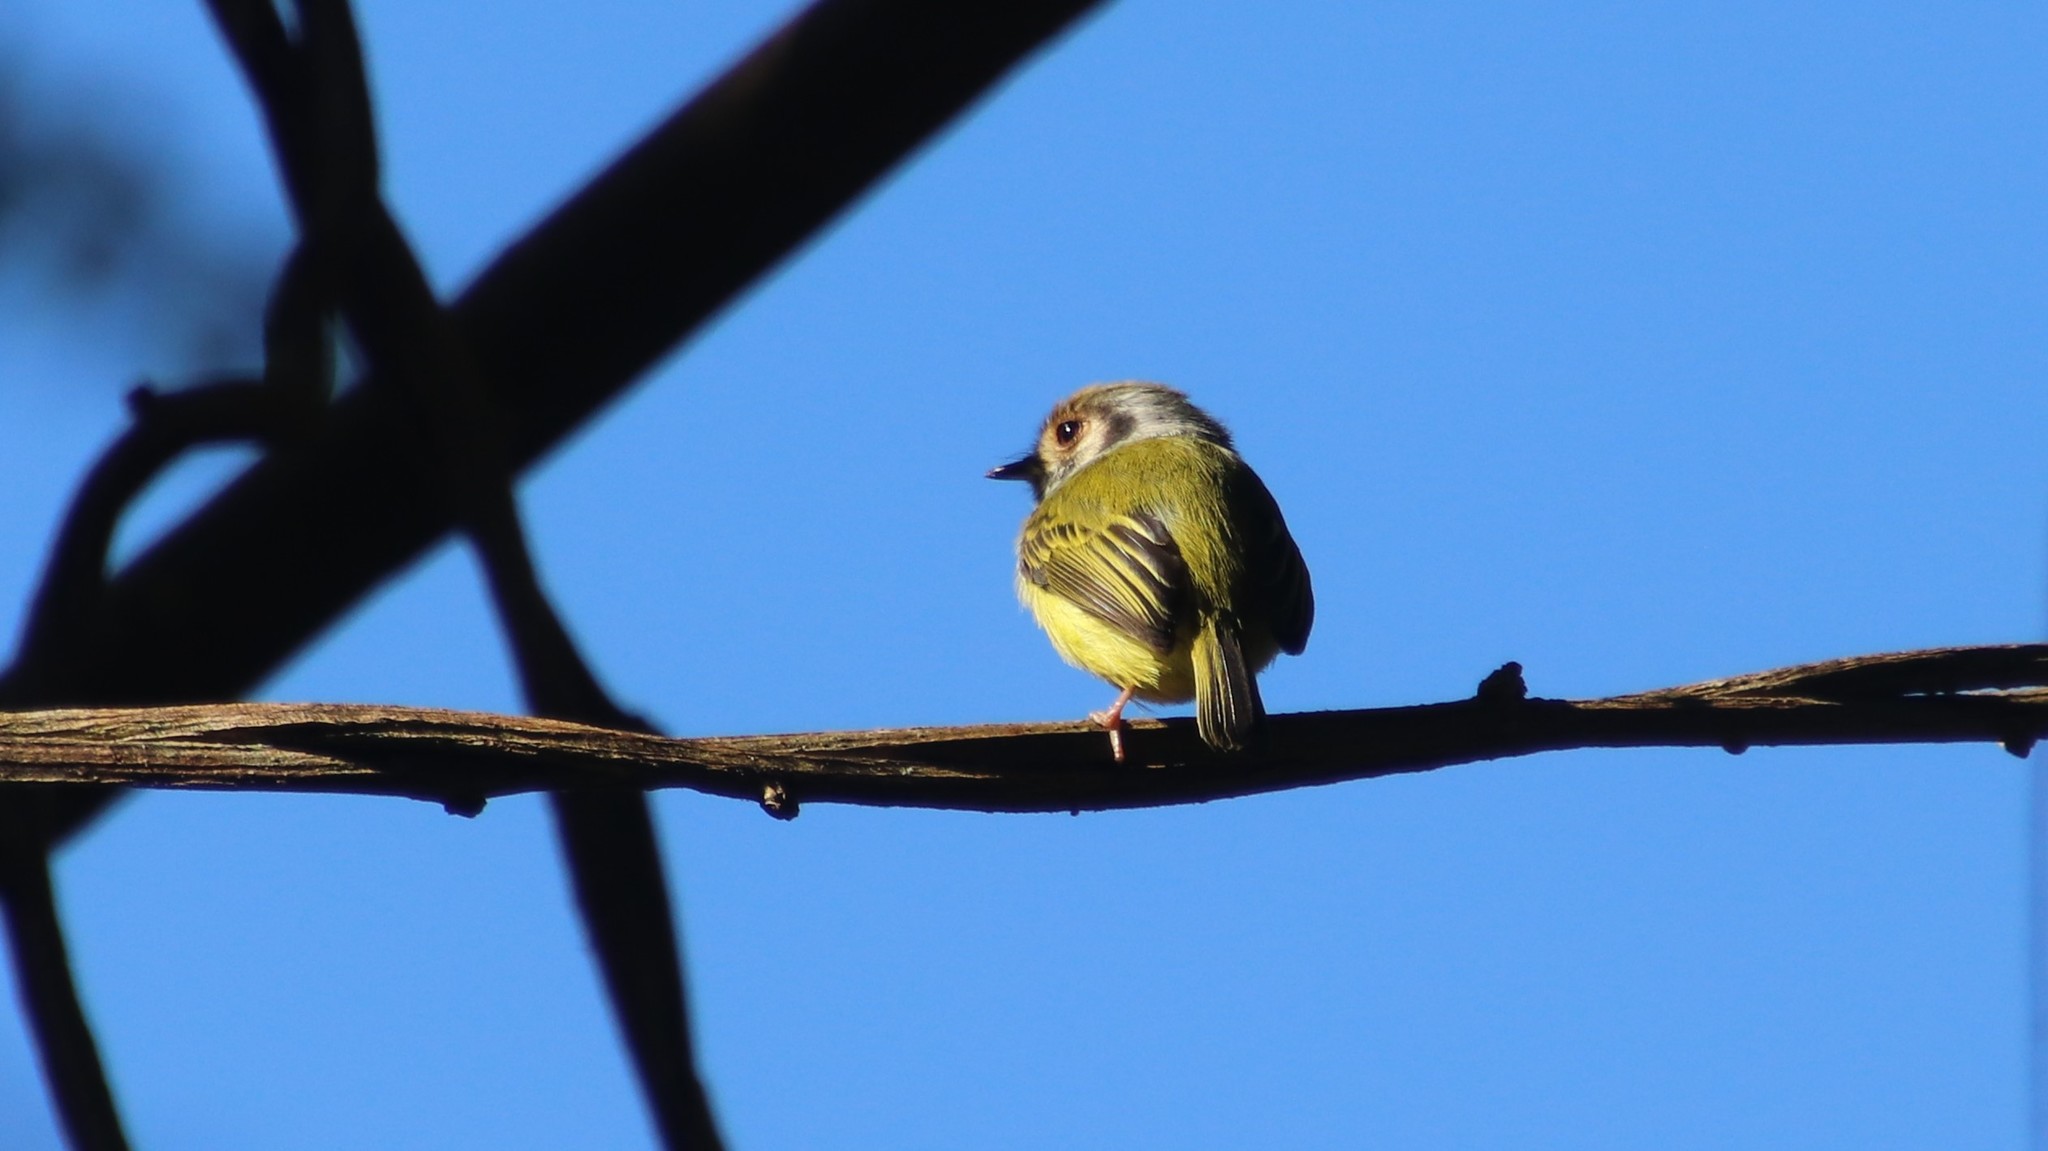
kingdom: Animalia
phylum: Chordata
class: Aves
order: Passeriformes
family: Tyrannidae
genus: Myiornis
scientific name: Myiornis auricularis
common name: Eared pygmy tyrant
